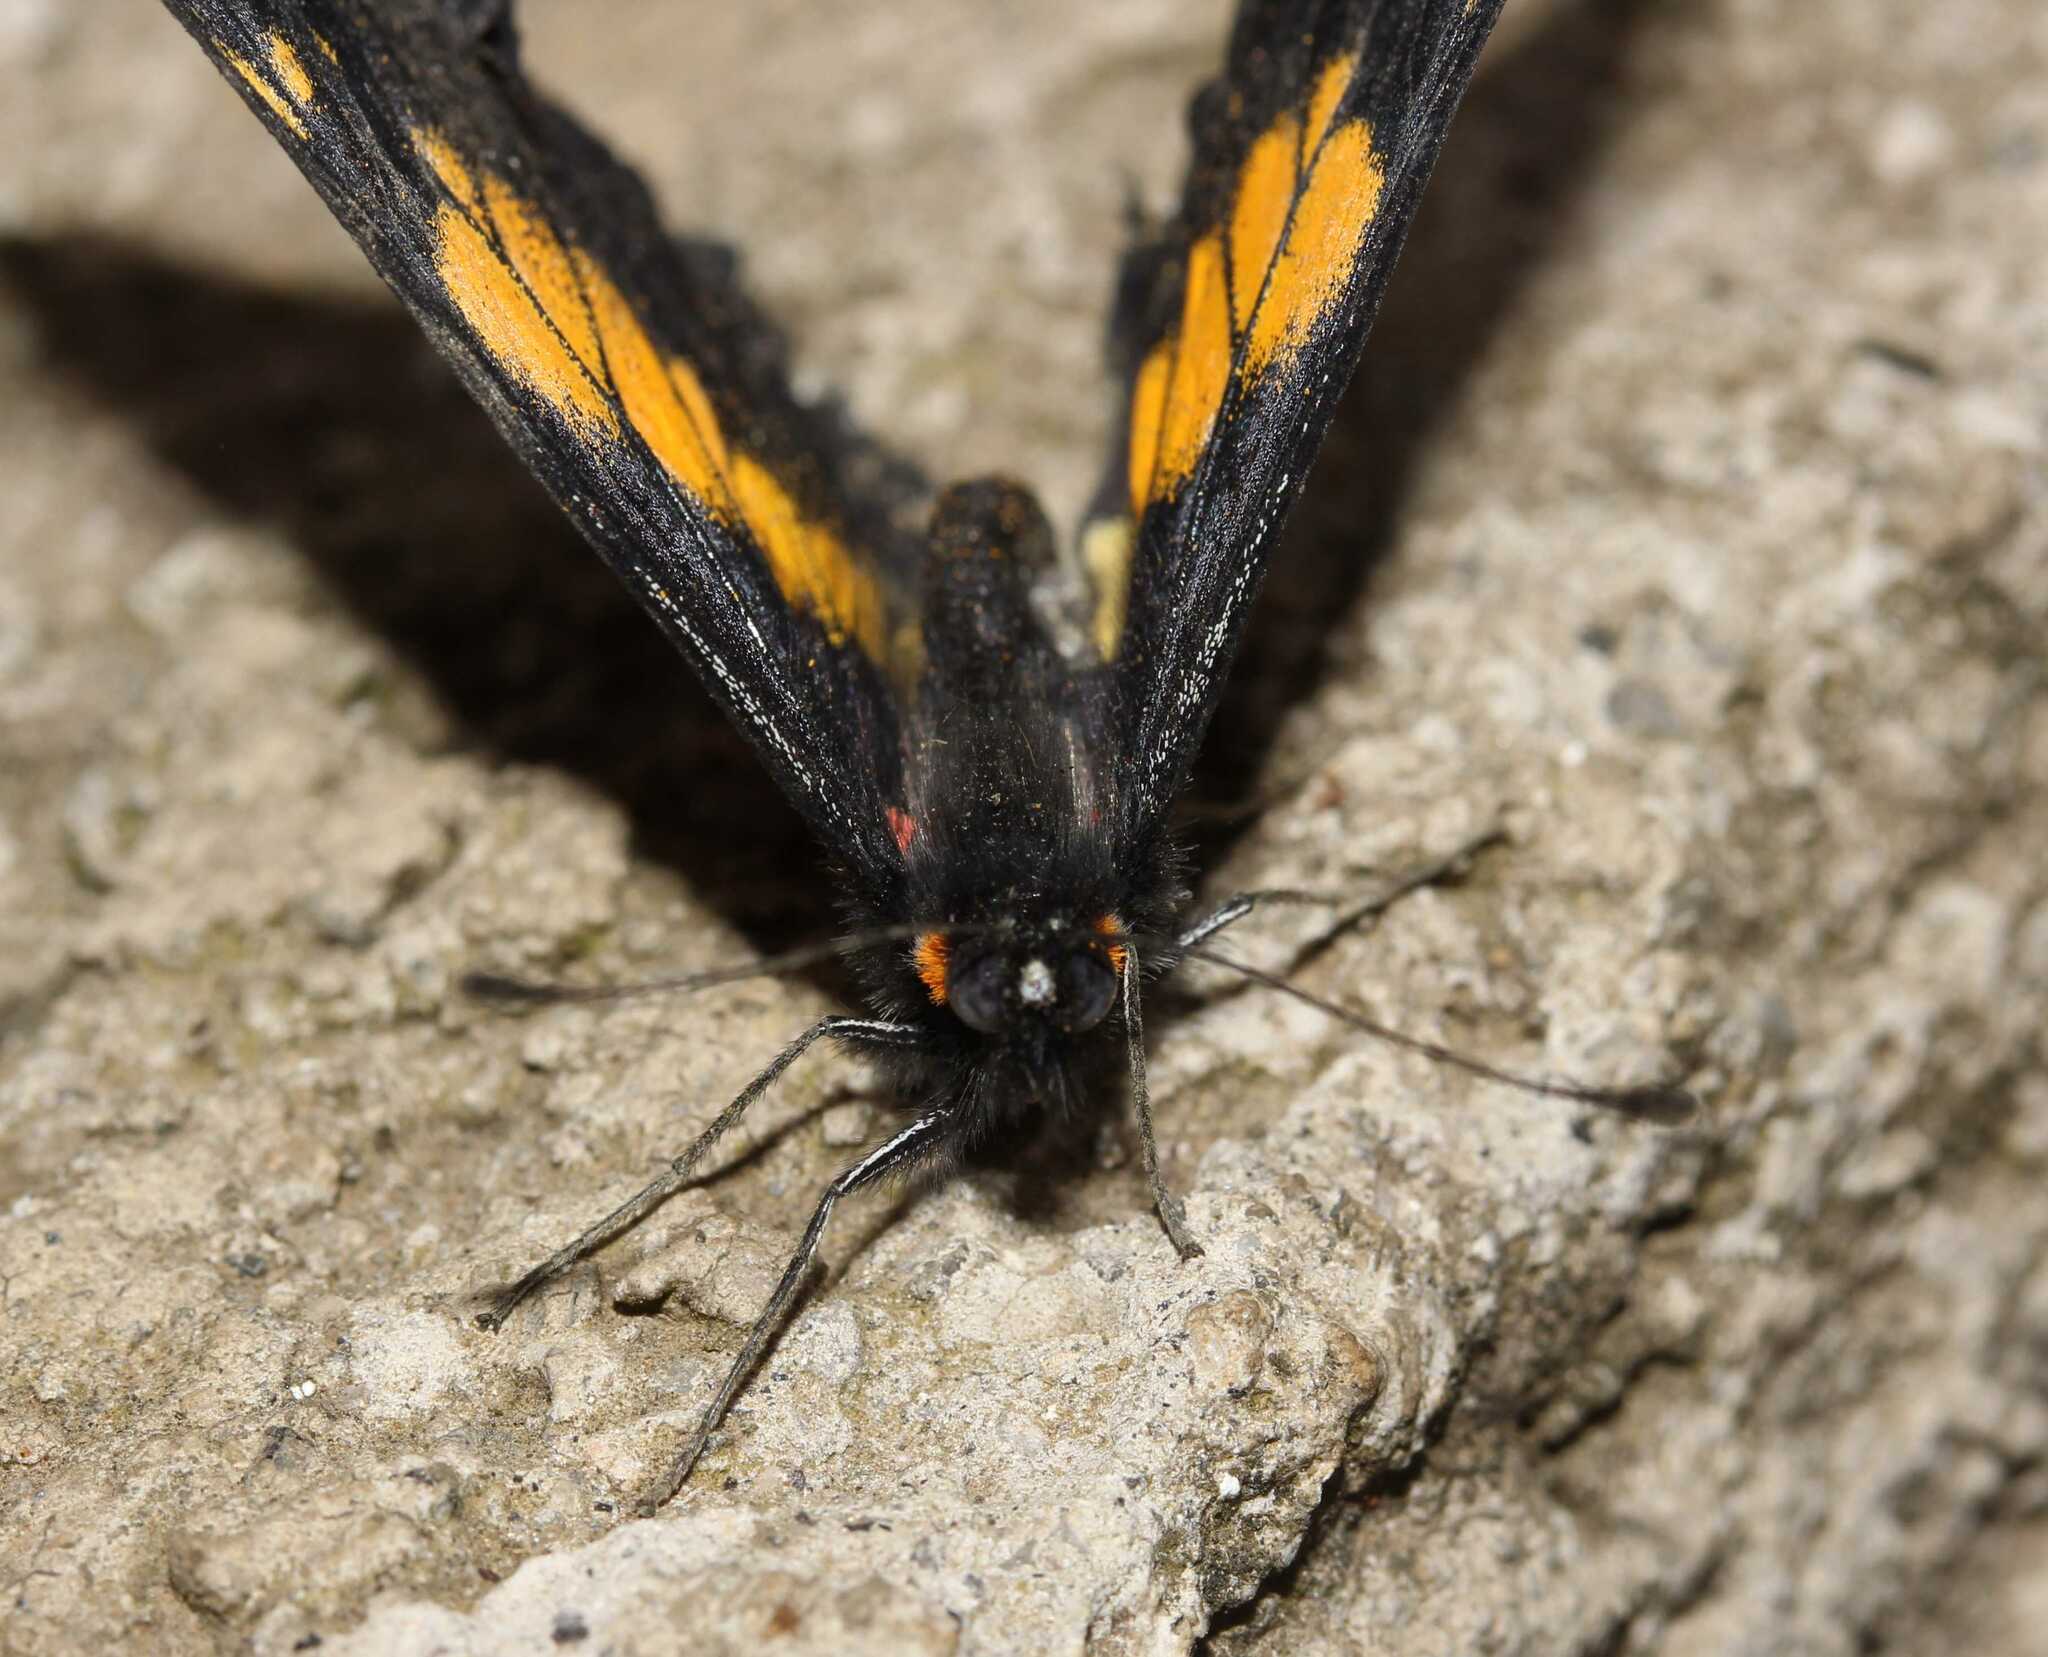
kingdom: Animalia
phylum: Arthropoda
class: Insecta
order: Lepidoptera
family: Pieridae
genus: Archonias
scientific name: Archonias teutila
